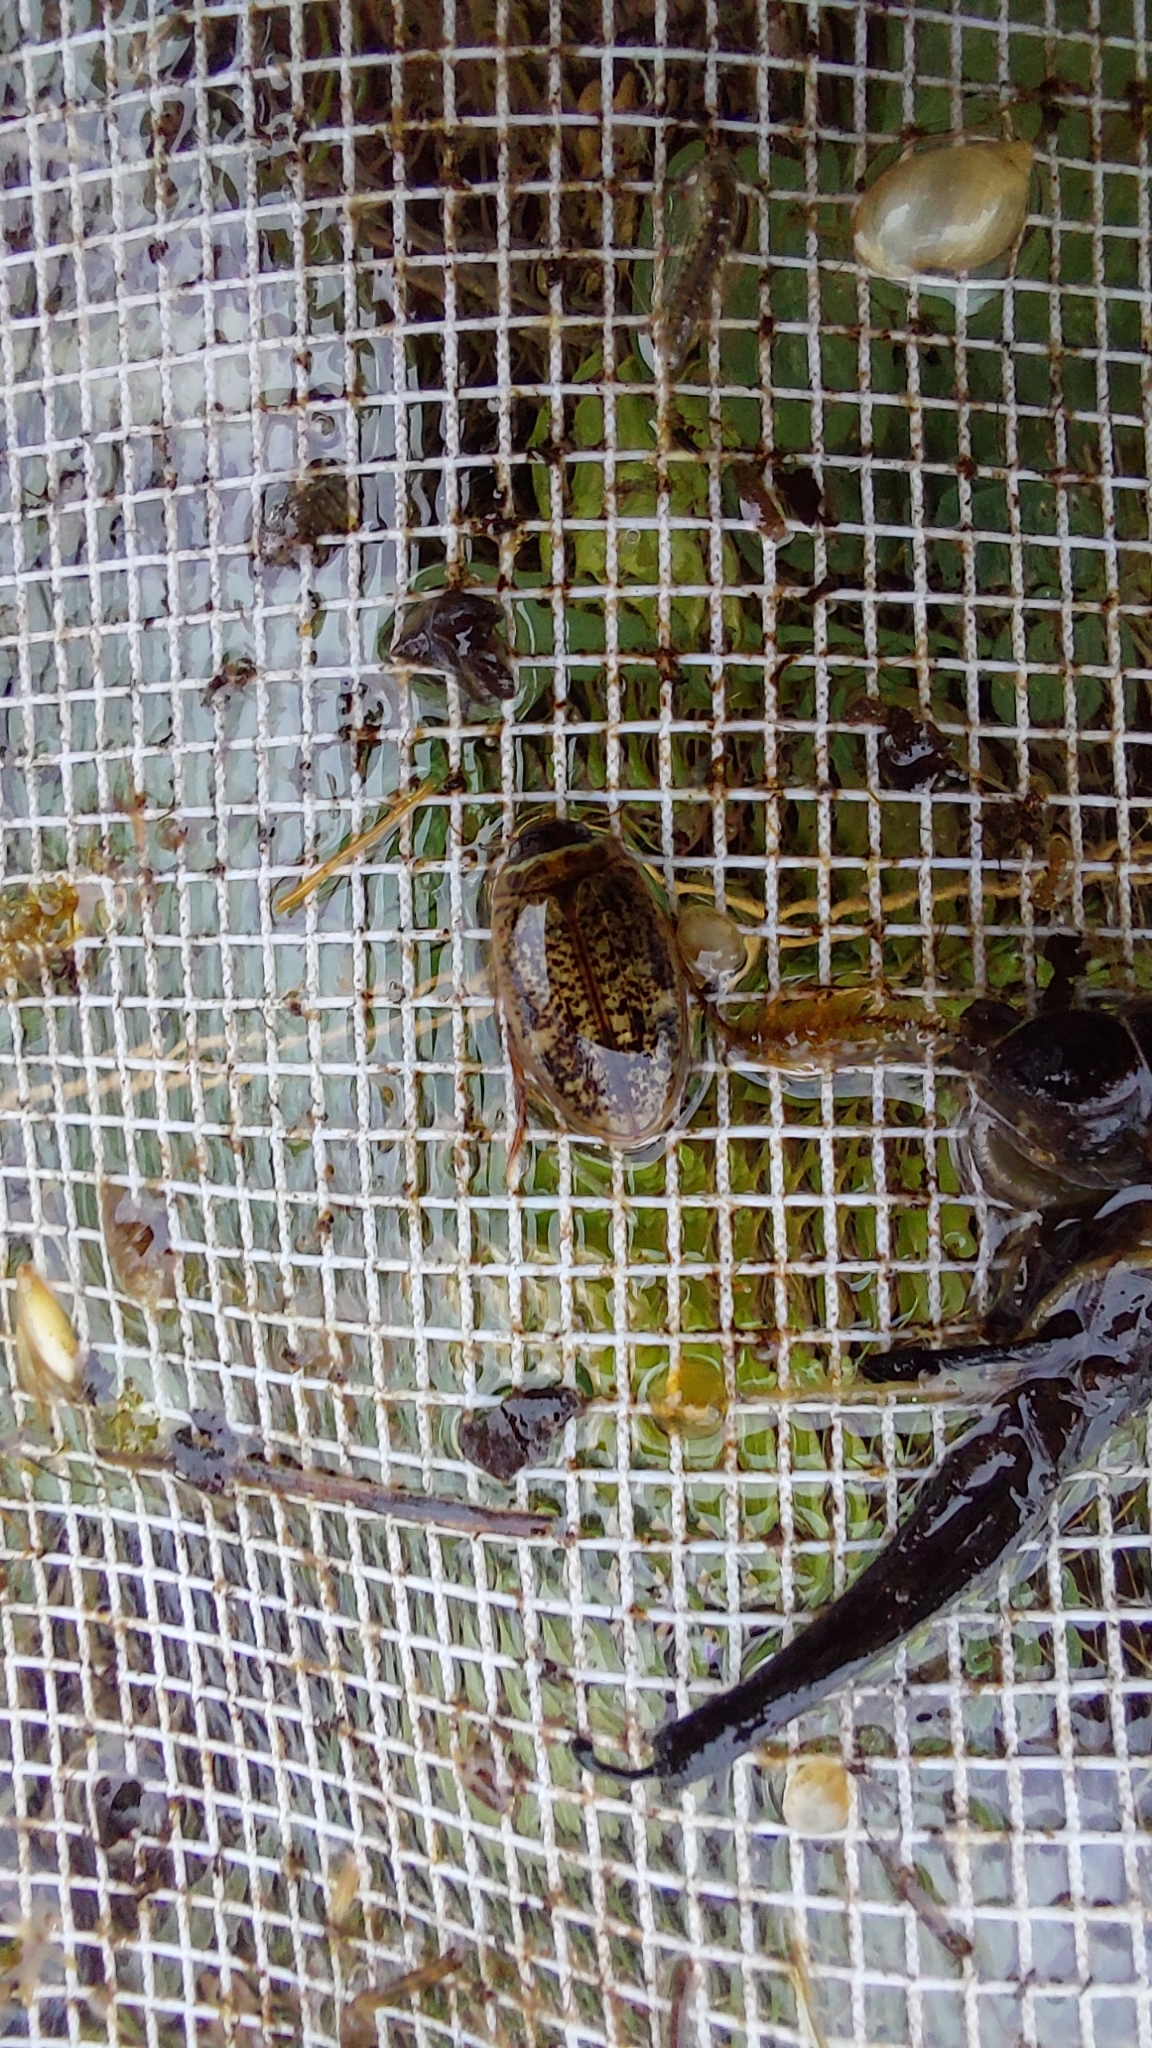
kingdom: Animalia
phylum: Arthropoda
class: Insecta
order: Coleoptera
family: Dytiscidae
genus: Agabus
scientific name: Agabus nebulosus
